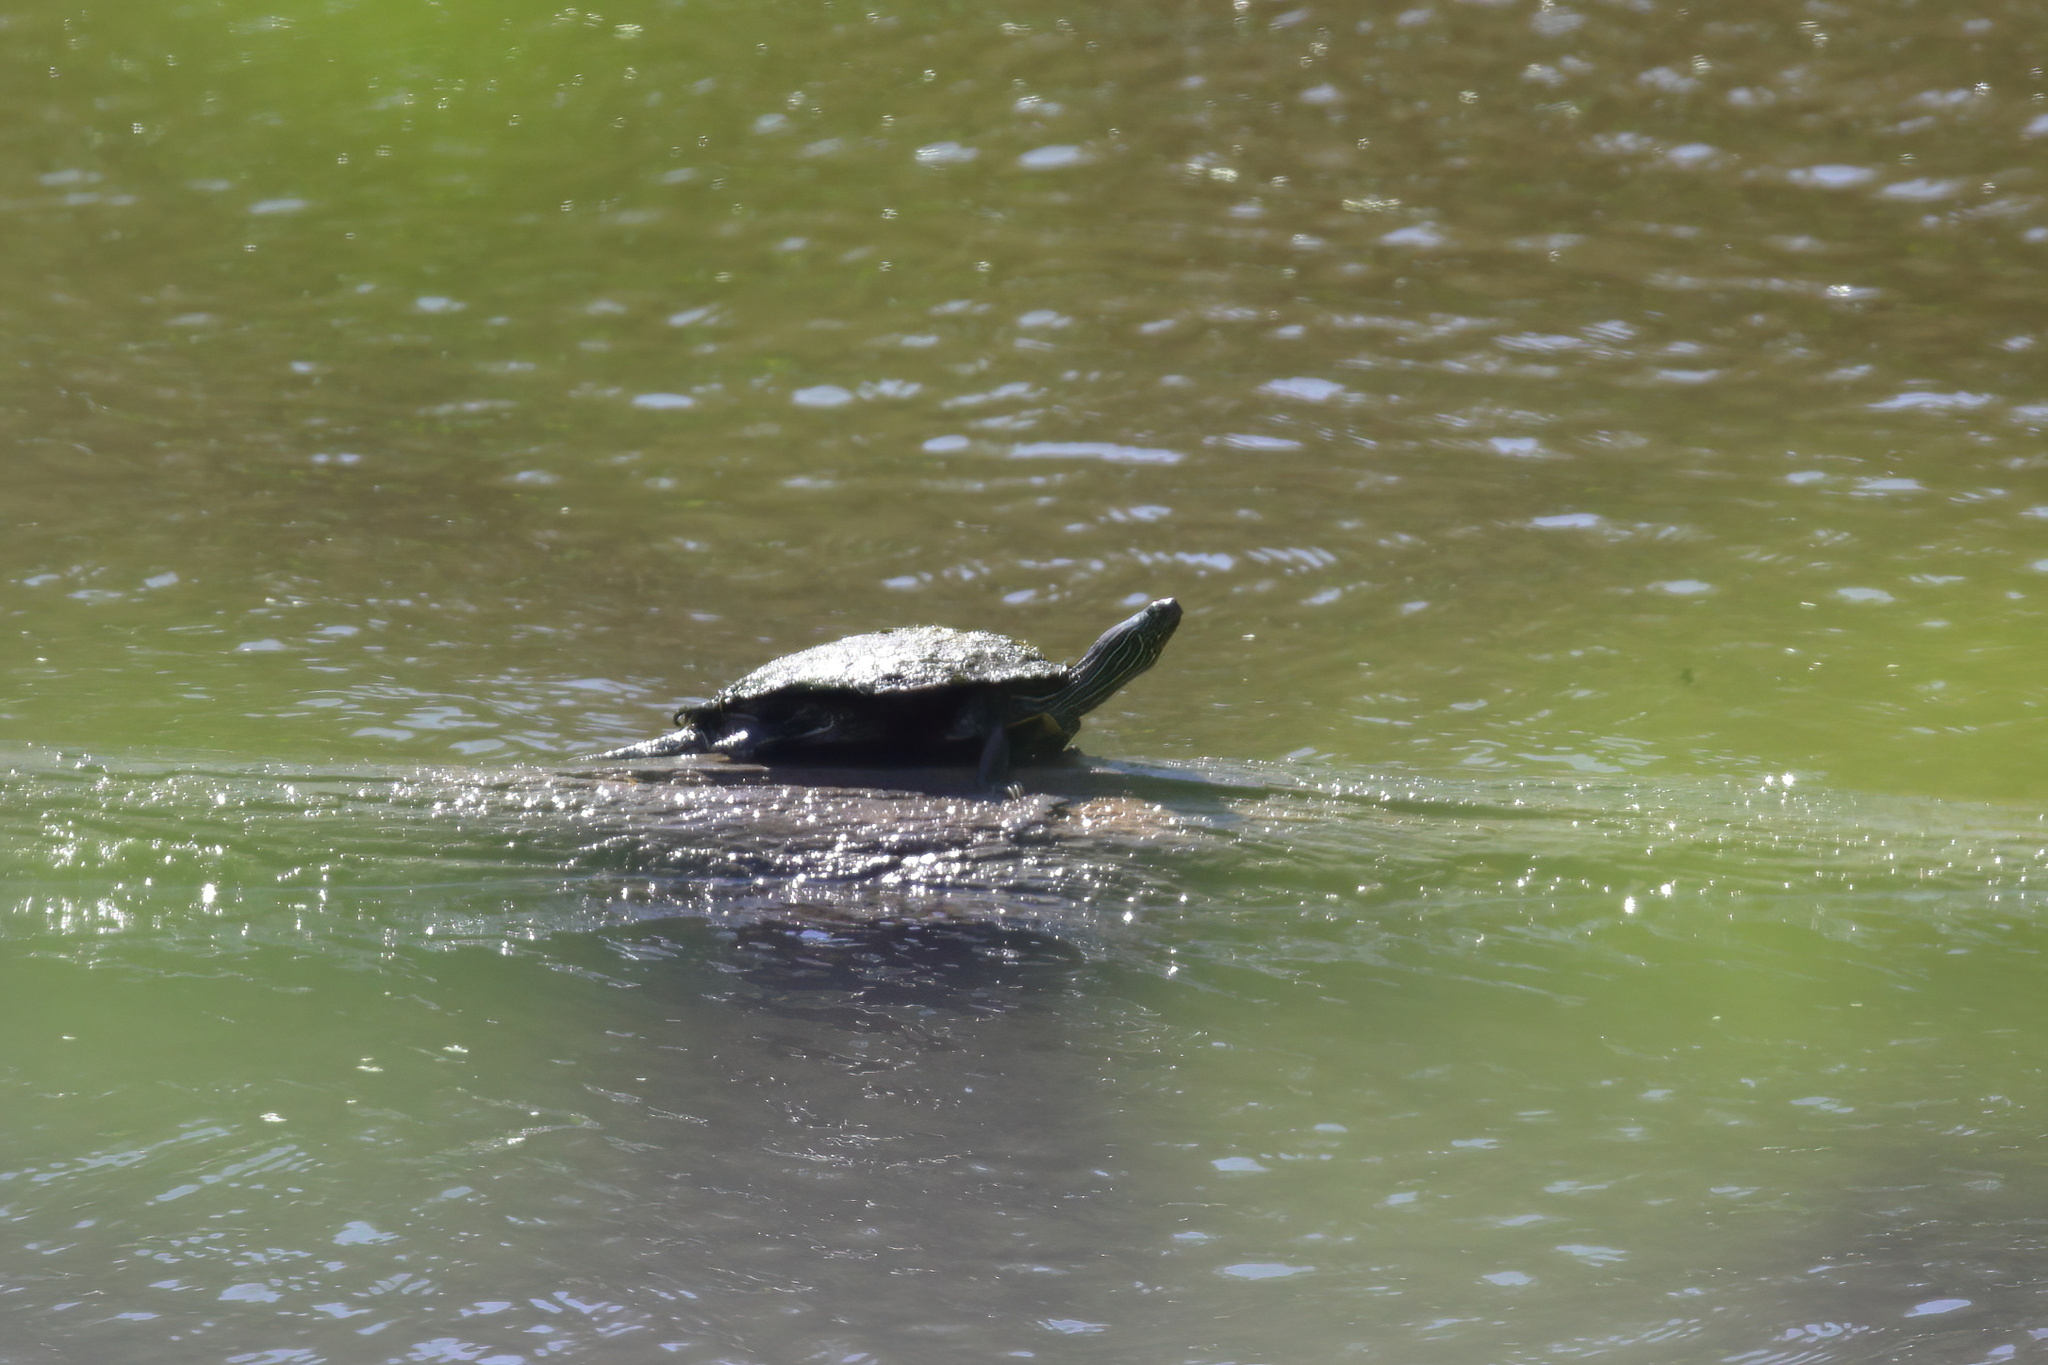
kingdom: Animalia
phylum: Chordata
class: Testudines
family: Emydidae
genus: Graptemys
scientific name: Graptemys geographica
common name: Common map turtle
